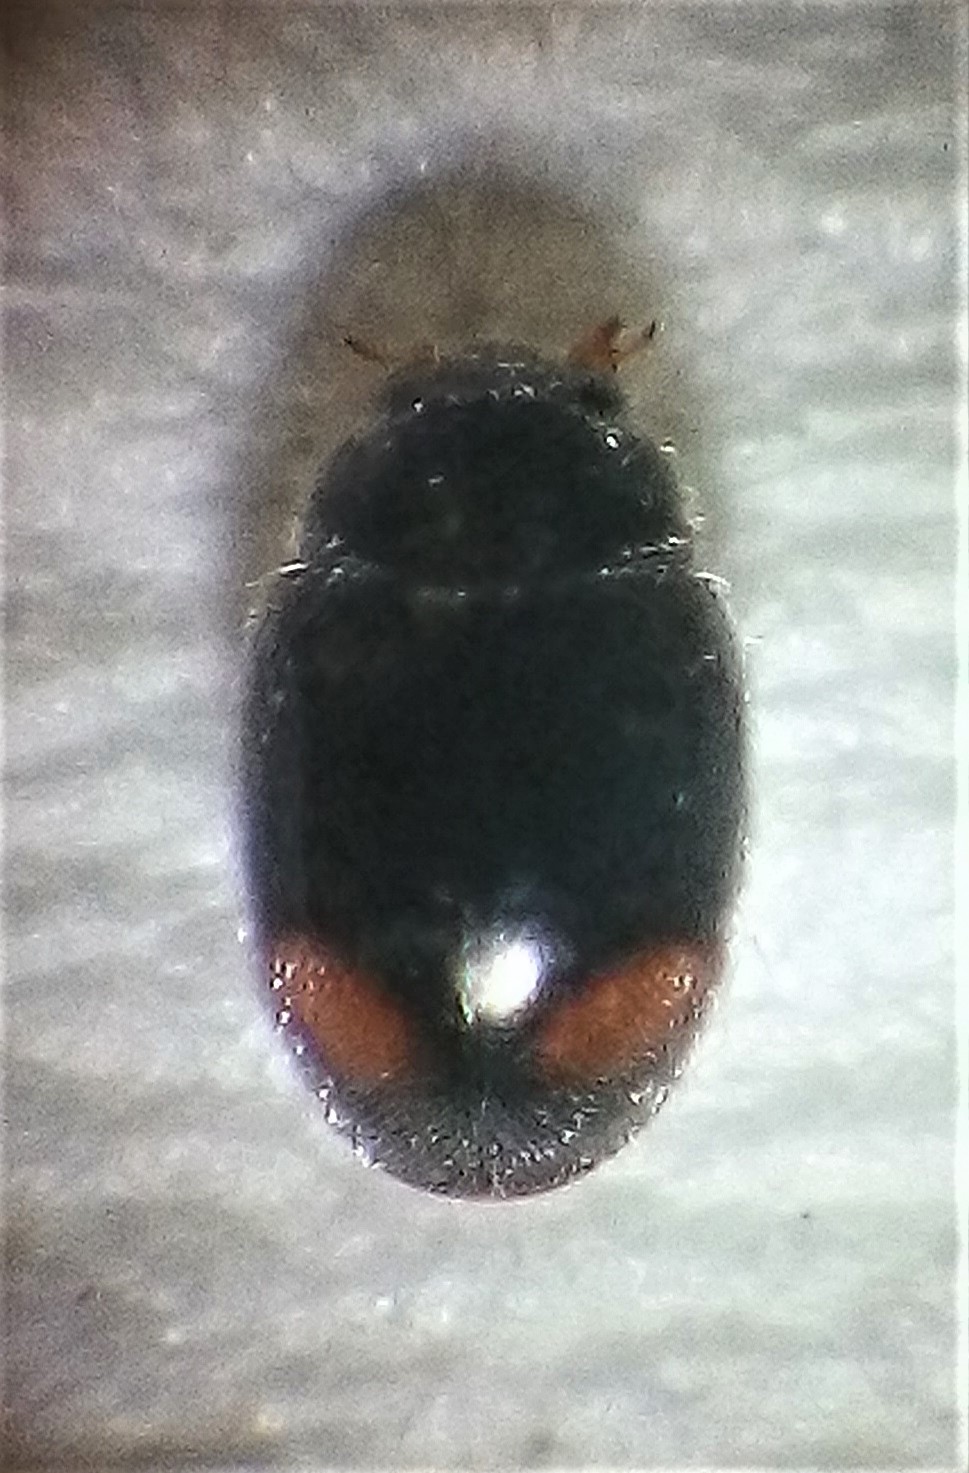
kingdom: Animalia
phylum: Arthropoda
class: Insecta
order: Coleoptera
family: Coccinellidae
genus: Nephus
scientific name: Nephus binaevatus
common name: Ladybird beetle
